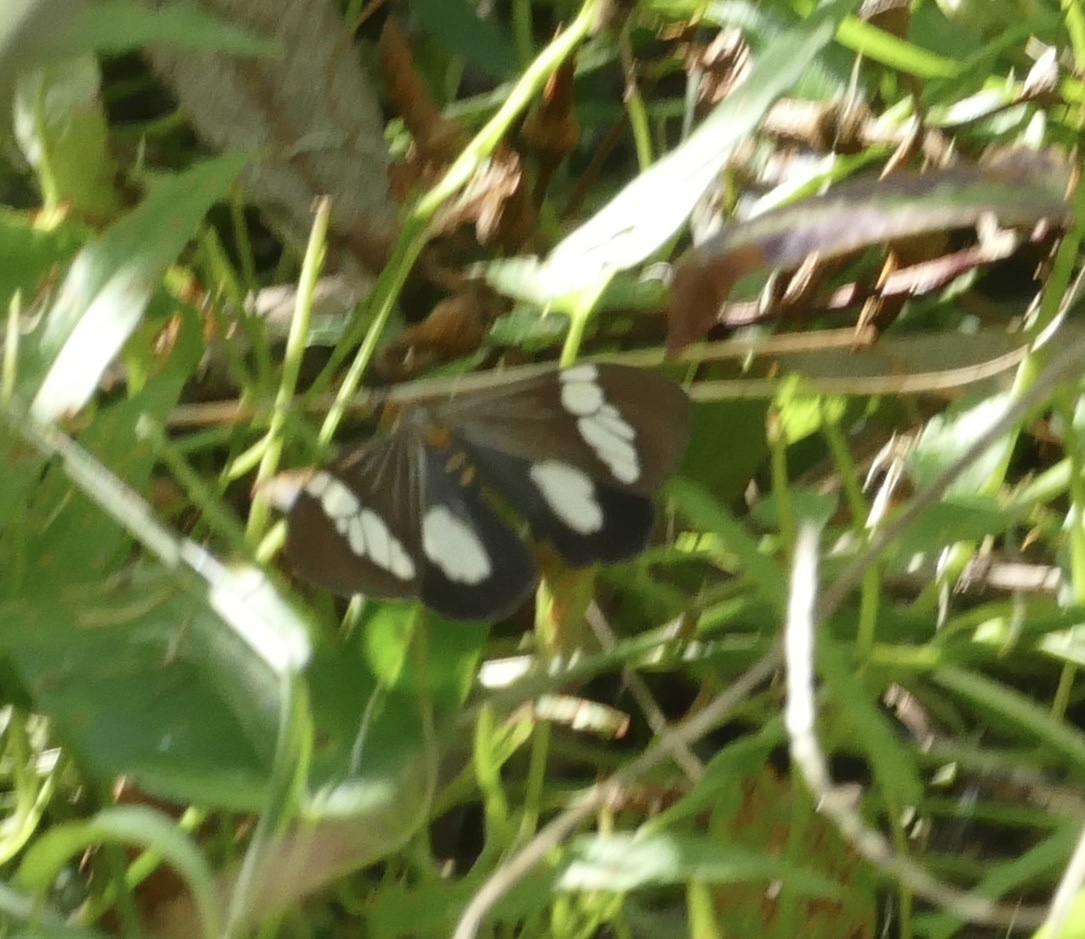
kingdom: Animalia
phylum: Arthropoda
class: Insecta
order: Lepidoptera
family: Erebidae
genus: Nyctemera
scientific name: Nyctemera baulus
